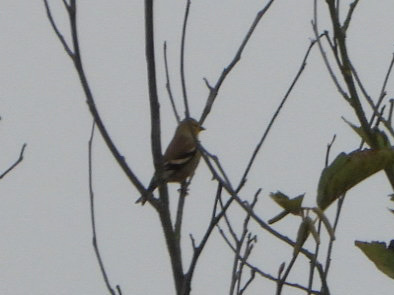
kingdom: Animalia
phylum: Chordata
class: Aves
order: Passeriformes
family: Fringillidae
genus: Spinus
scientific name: Spinus tristis
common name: American goldfinch
